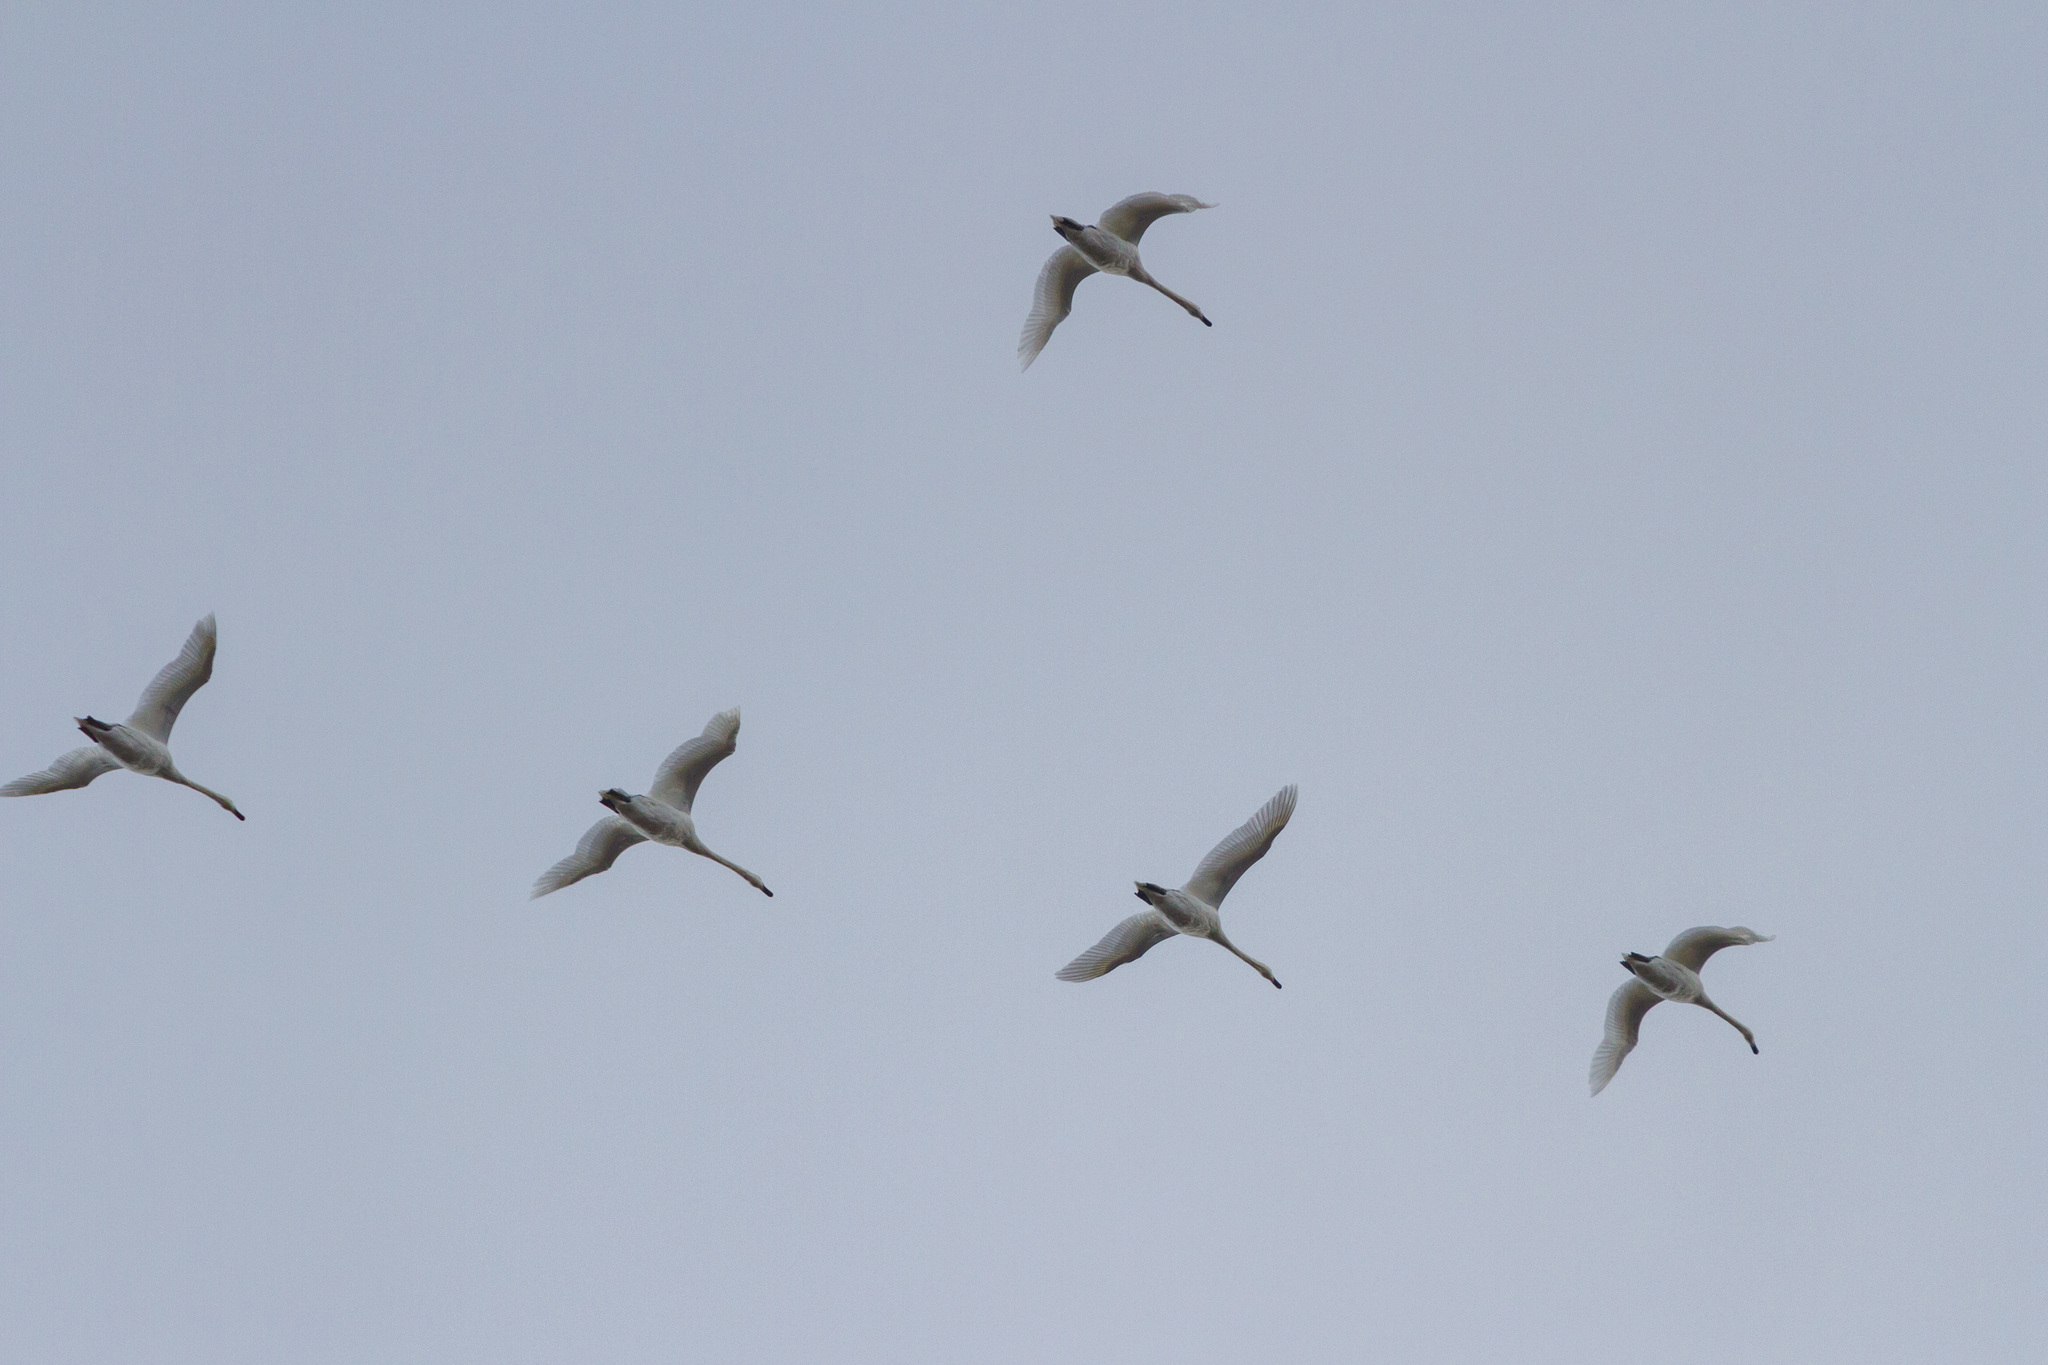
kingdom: Animalia
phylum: Chordata
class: Aves
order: Anseriformes
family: Anatidae
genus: Cygnus
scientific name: Cygnus cygnus
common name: Whooper swan
